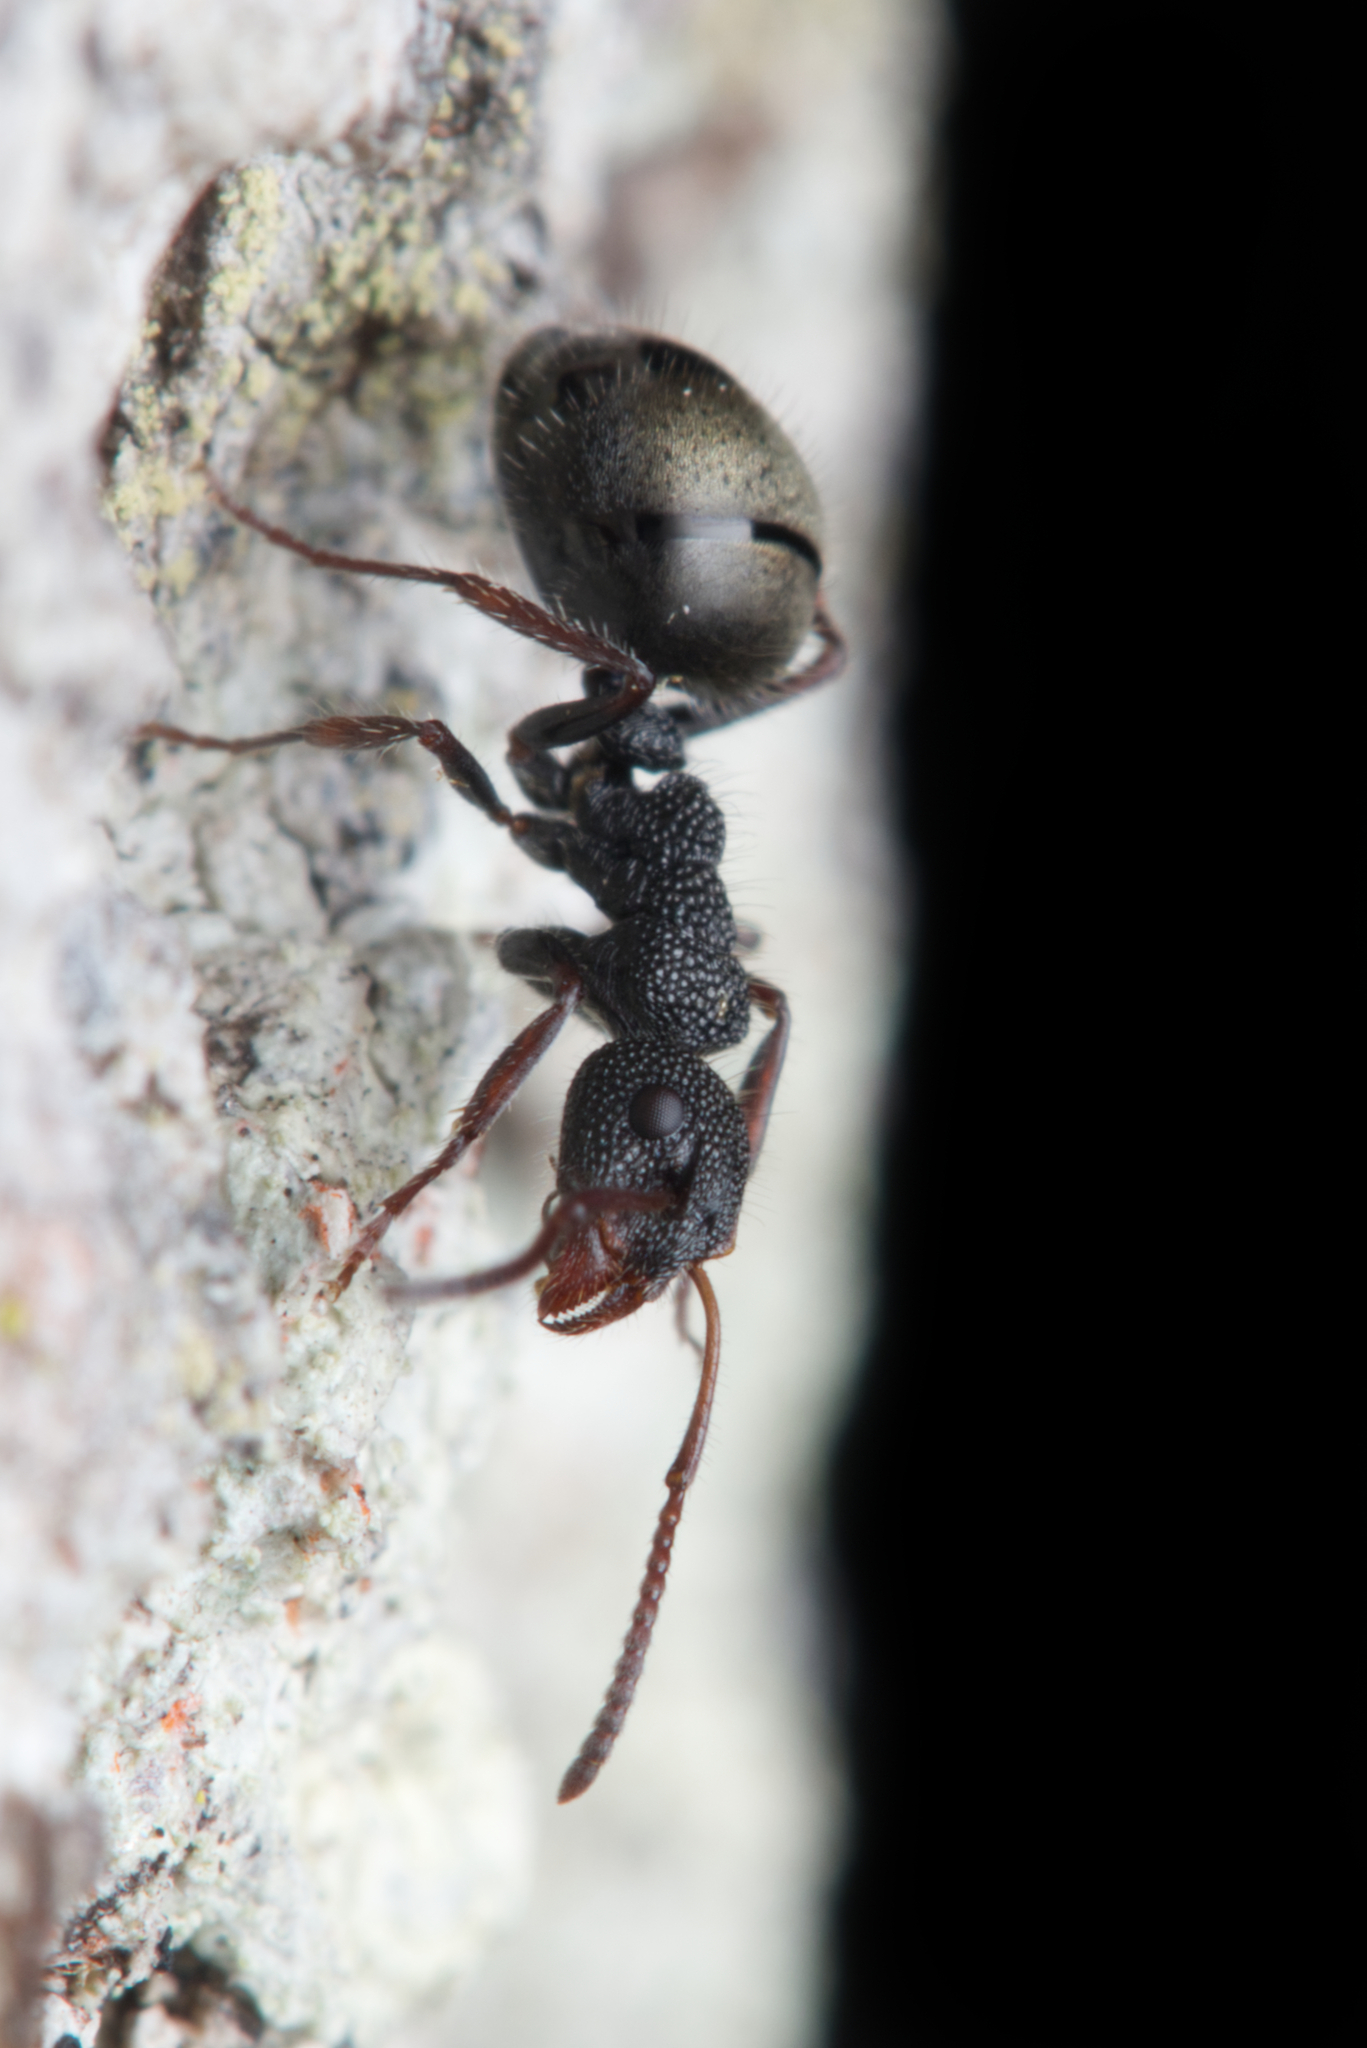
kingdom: Animalia
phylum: Arthropoda
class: Insecta
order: Hymenoptera
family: Formicidae
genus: Dolichoderus
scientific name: Dolichoderus scrobiculatus
